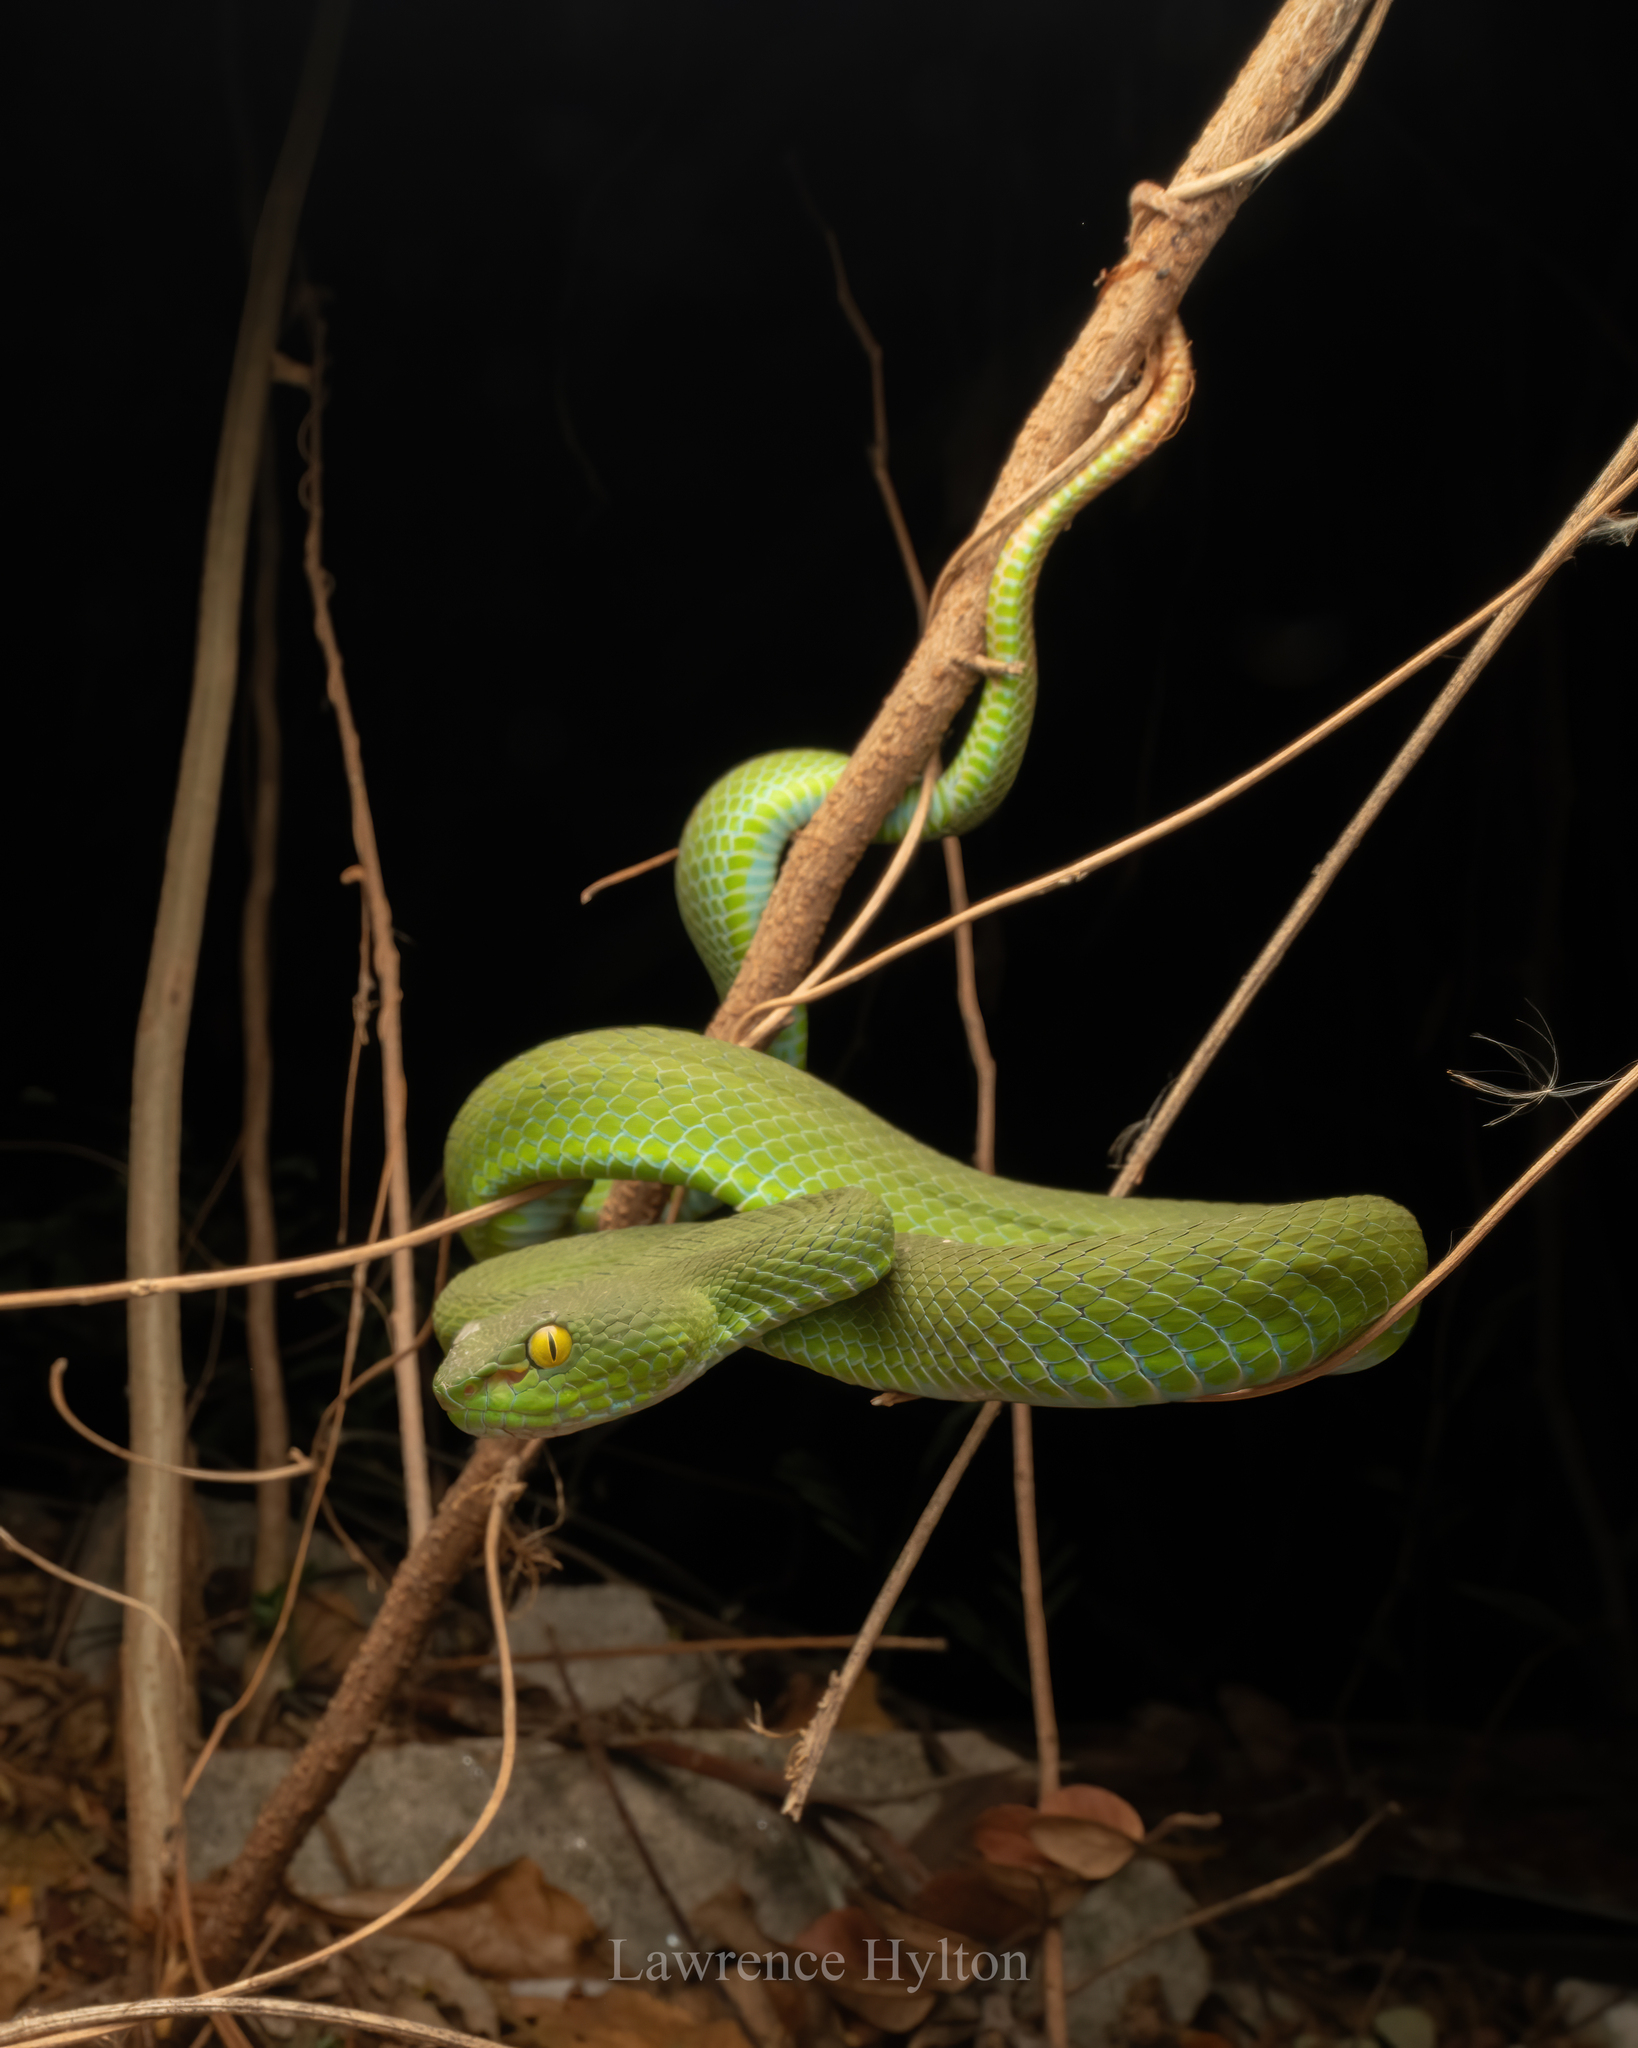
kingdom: Animalia
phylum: Chordata
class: Squamata
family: Viperidae
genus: Trimeresurus
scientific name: Trimeresurus macrops
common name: Kramer's pit viper
